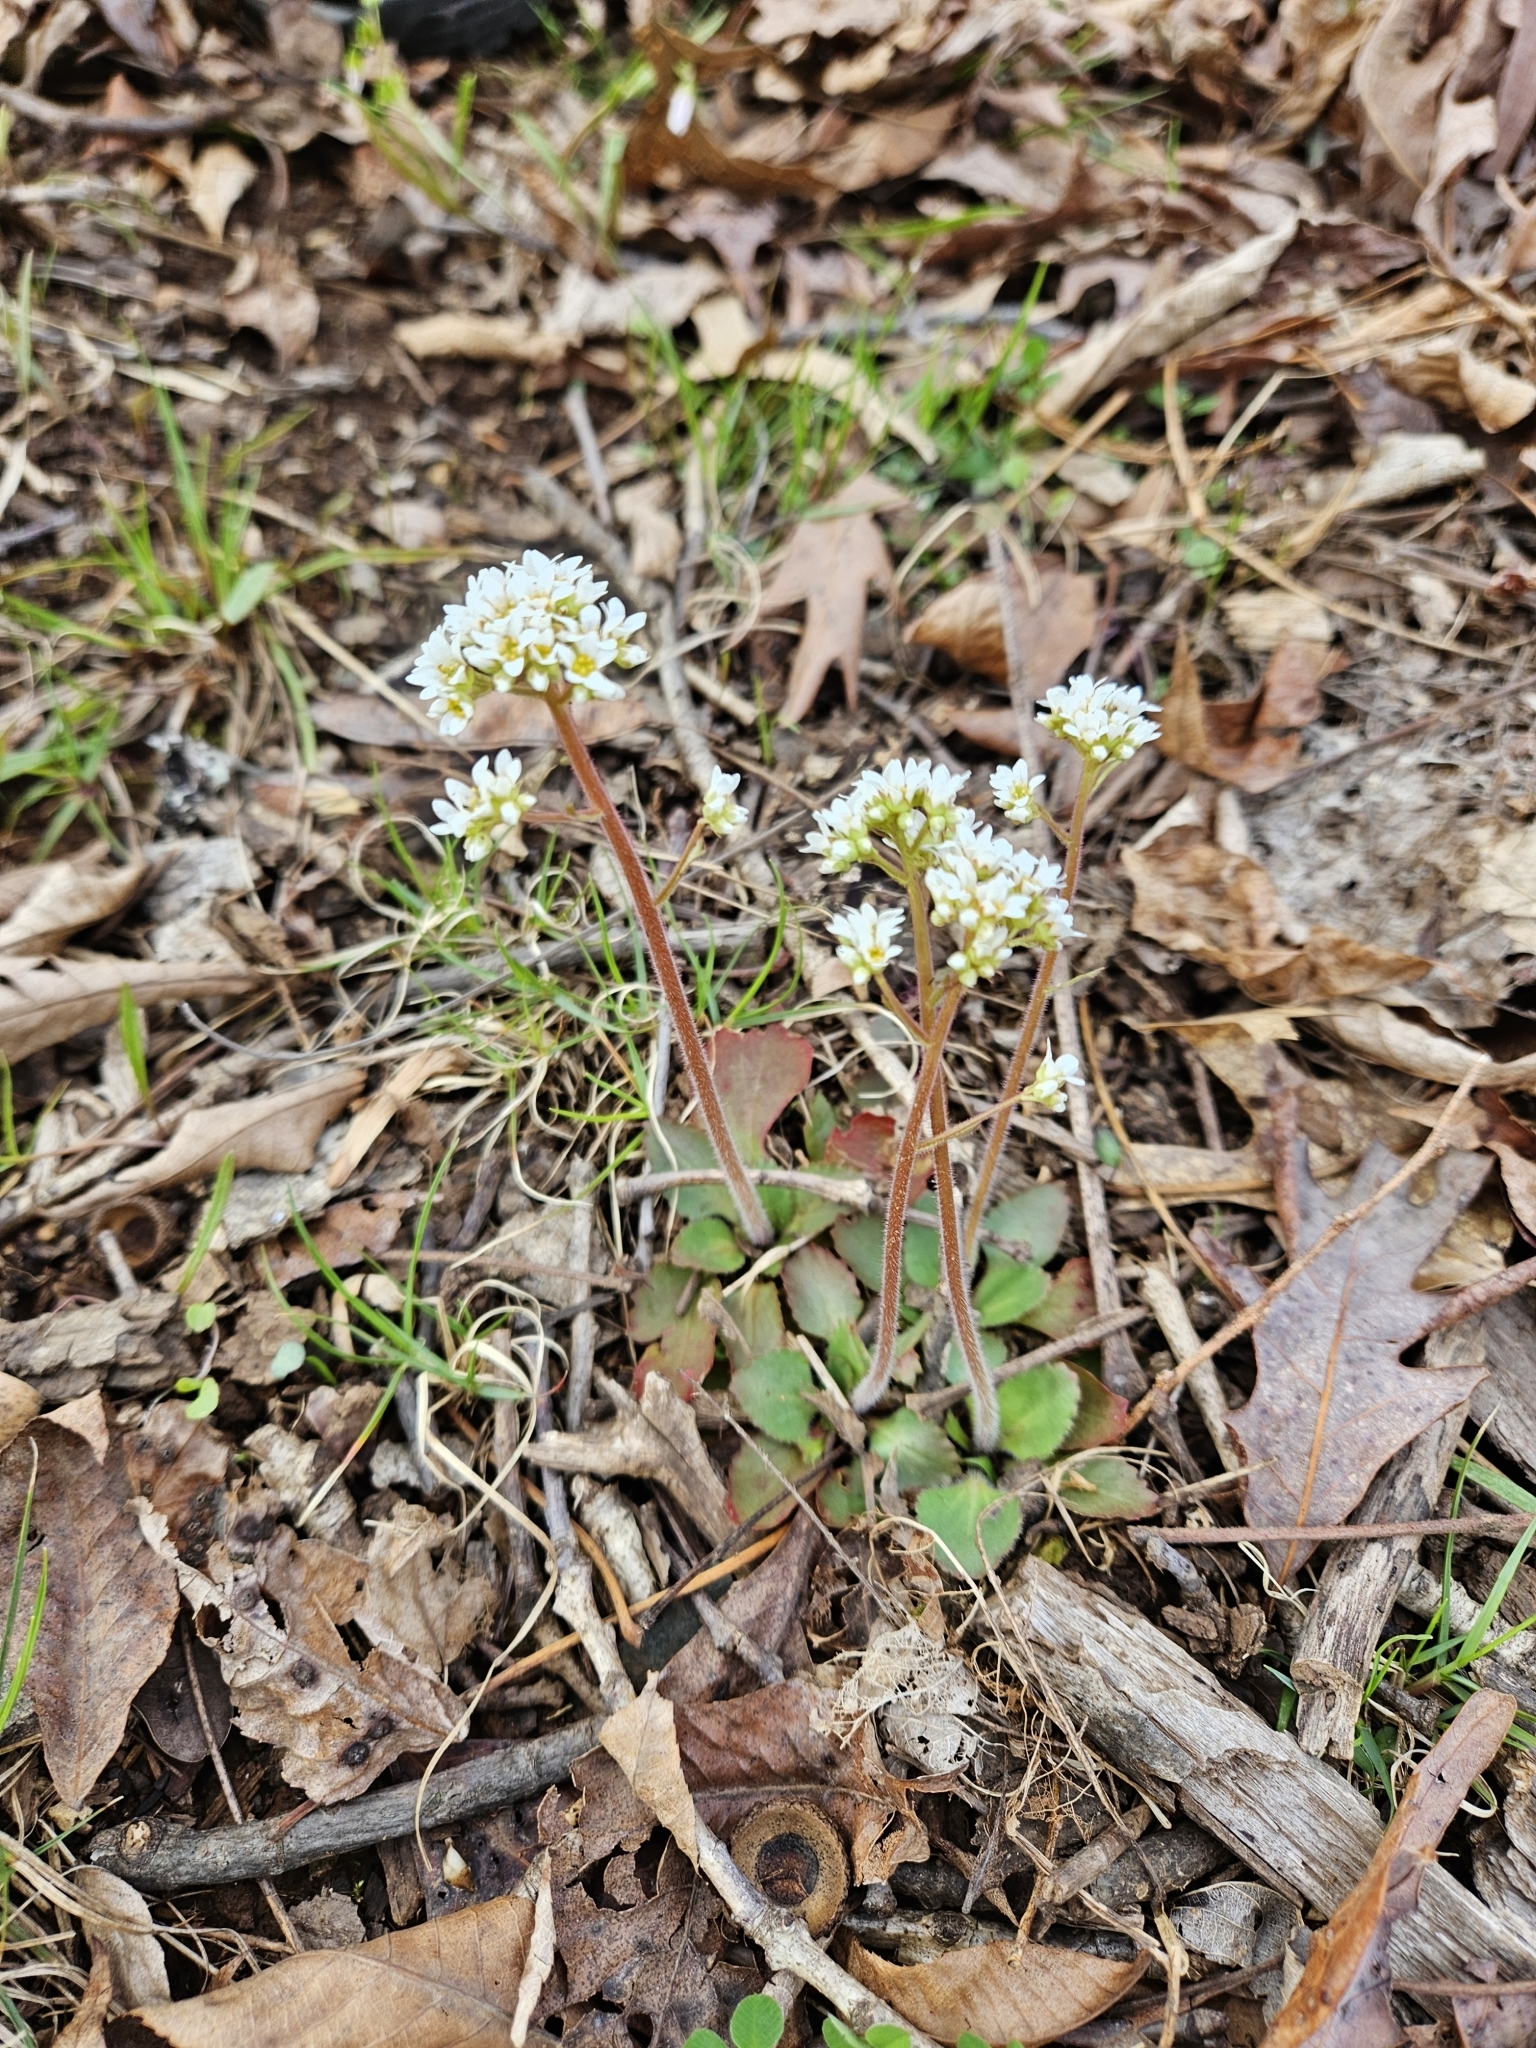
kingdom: Plantae
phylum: Tracheophyta
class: Magnoliopsida
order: Saxifragales
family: Saxifragaceae
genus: Micranthes
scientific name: Micranthes virginiensis
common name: Early saxifrage
